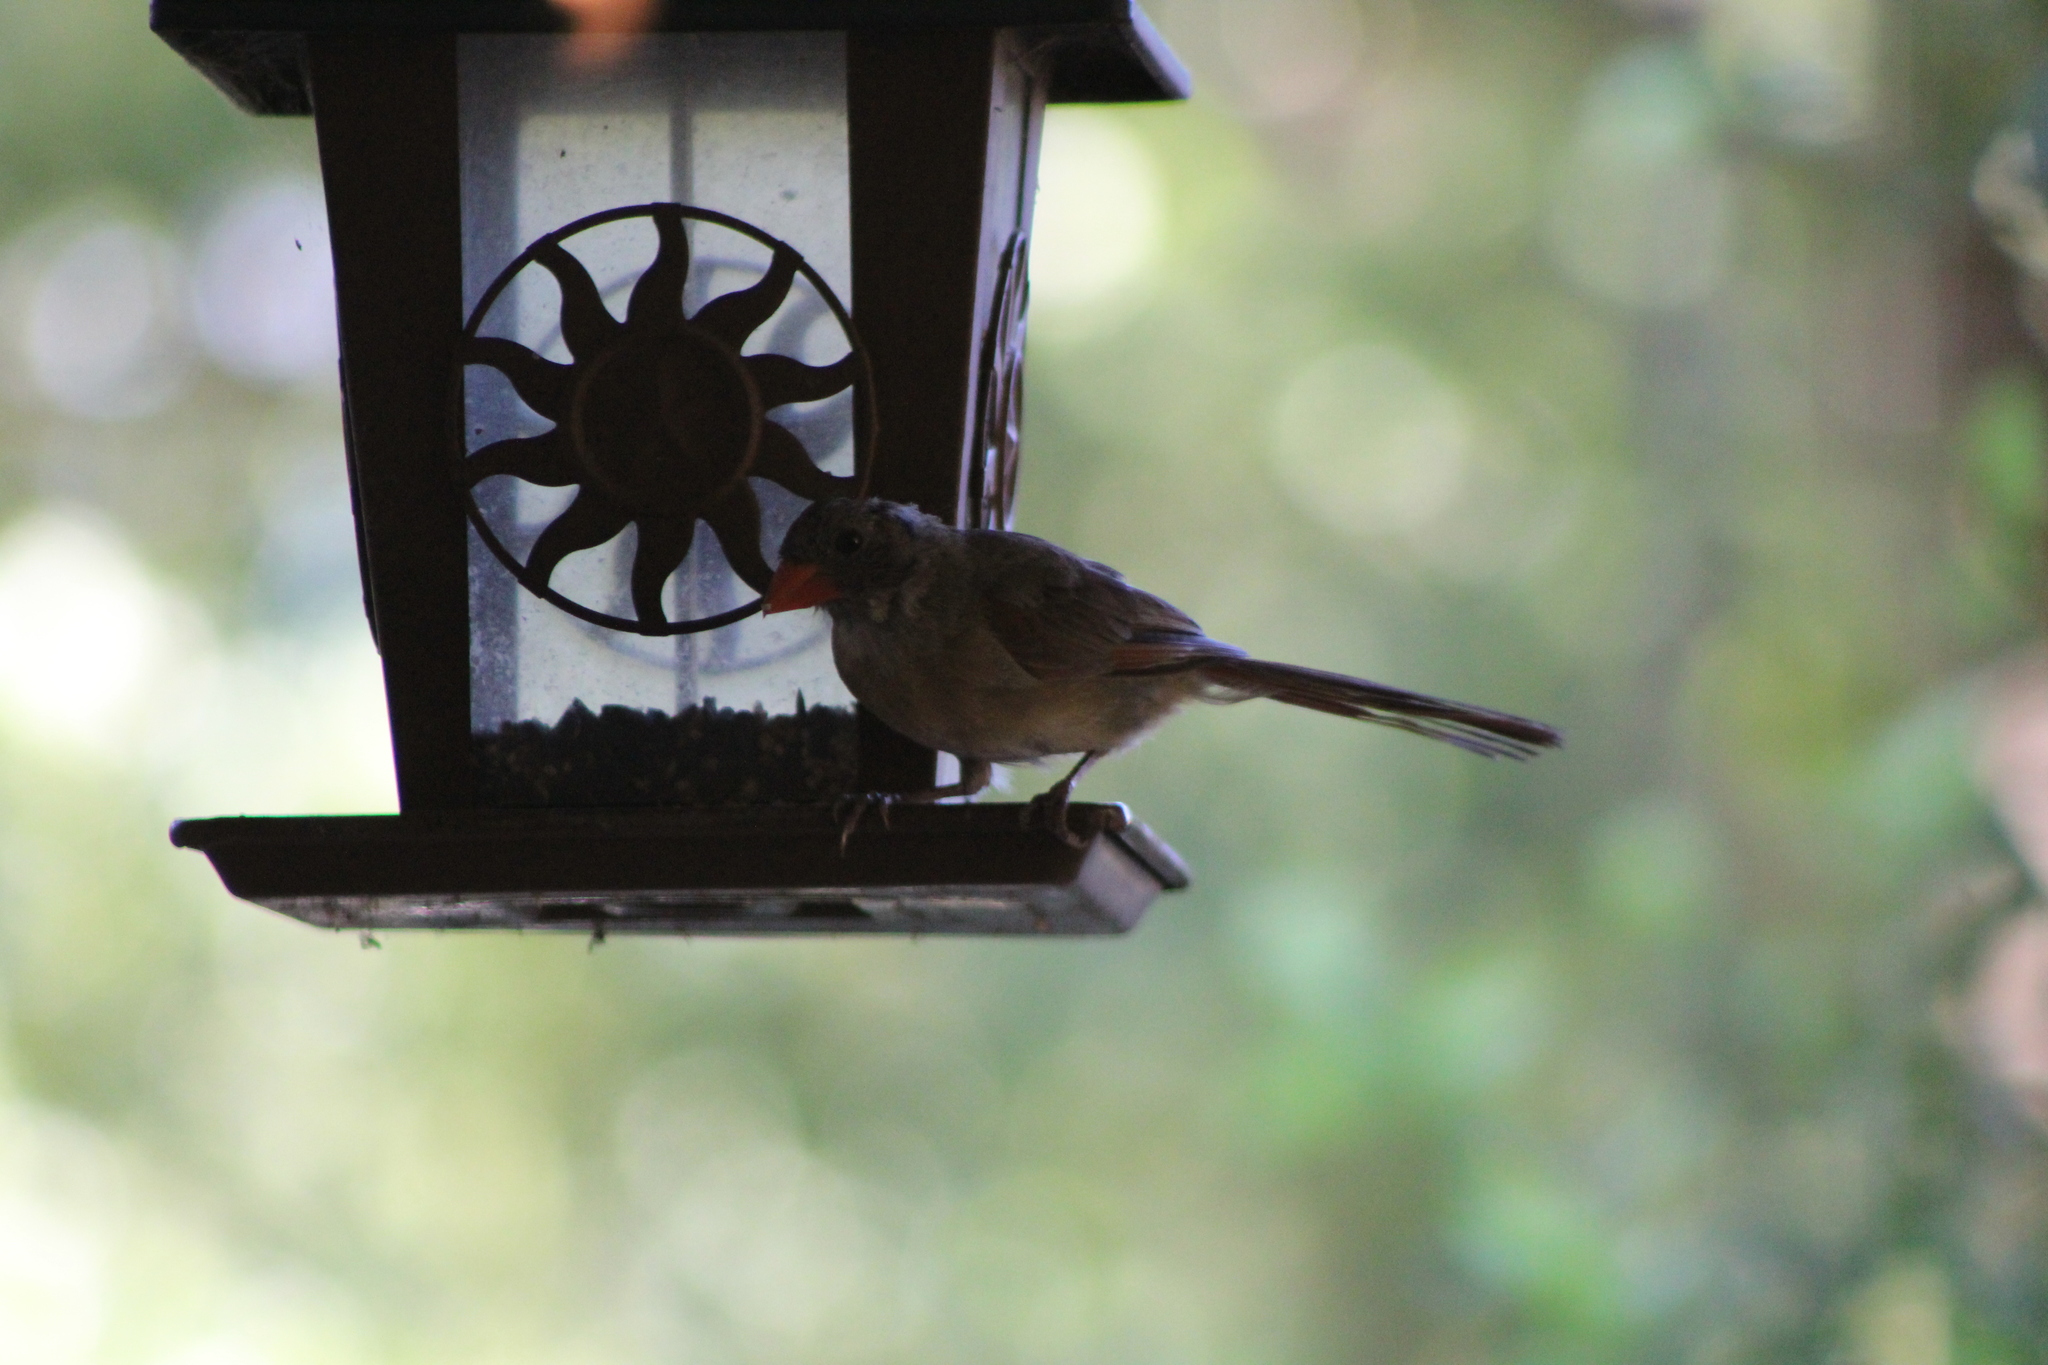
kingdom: Animalia
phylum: Chordata
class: Aves
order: Passeriformes
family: Cardinalidae
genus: Cardinalis
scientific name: Cardinalis cardinalis
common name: Northern cardinal
